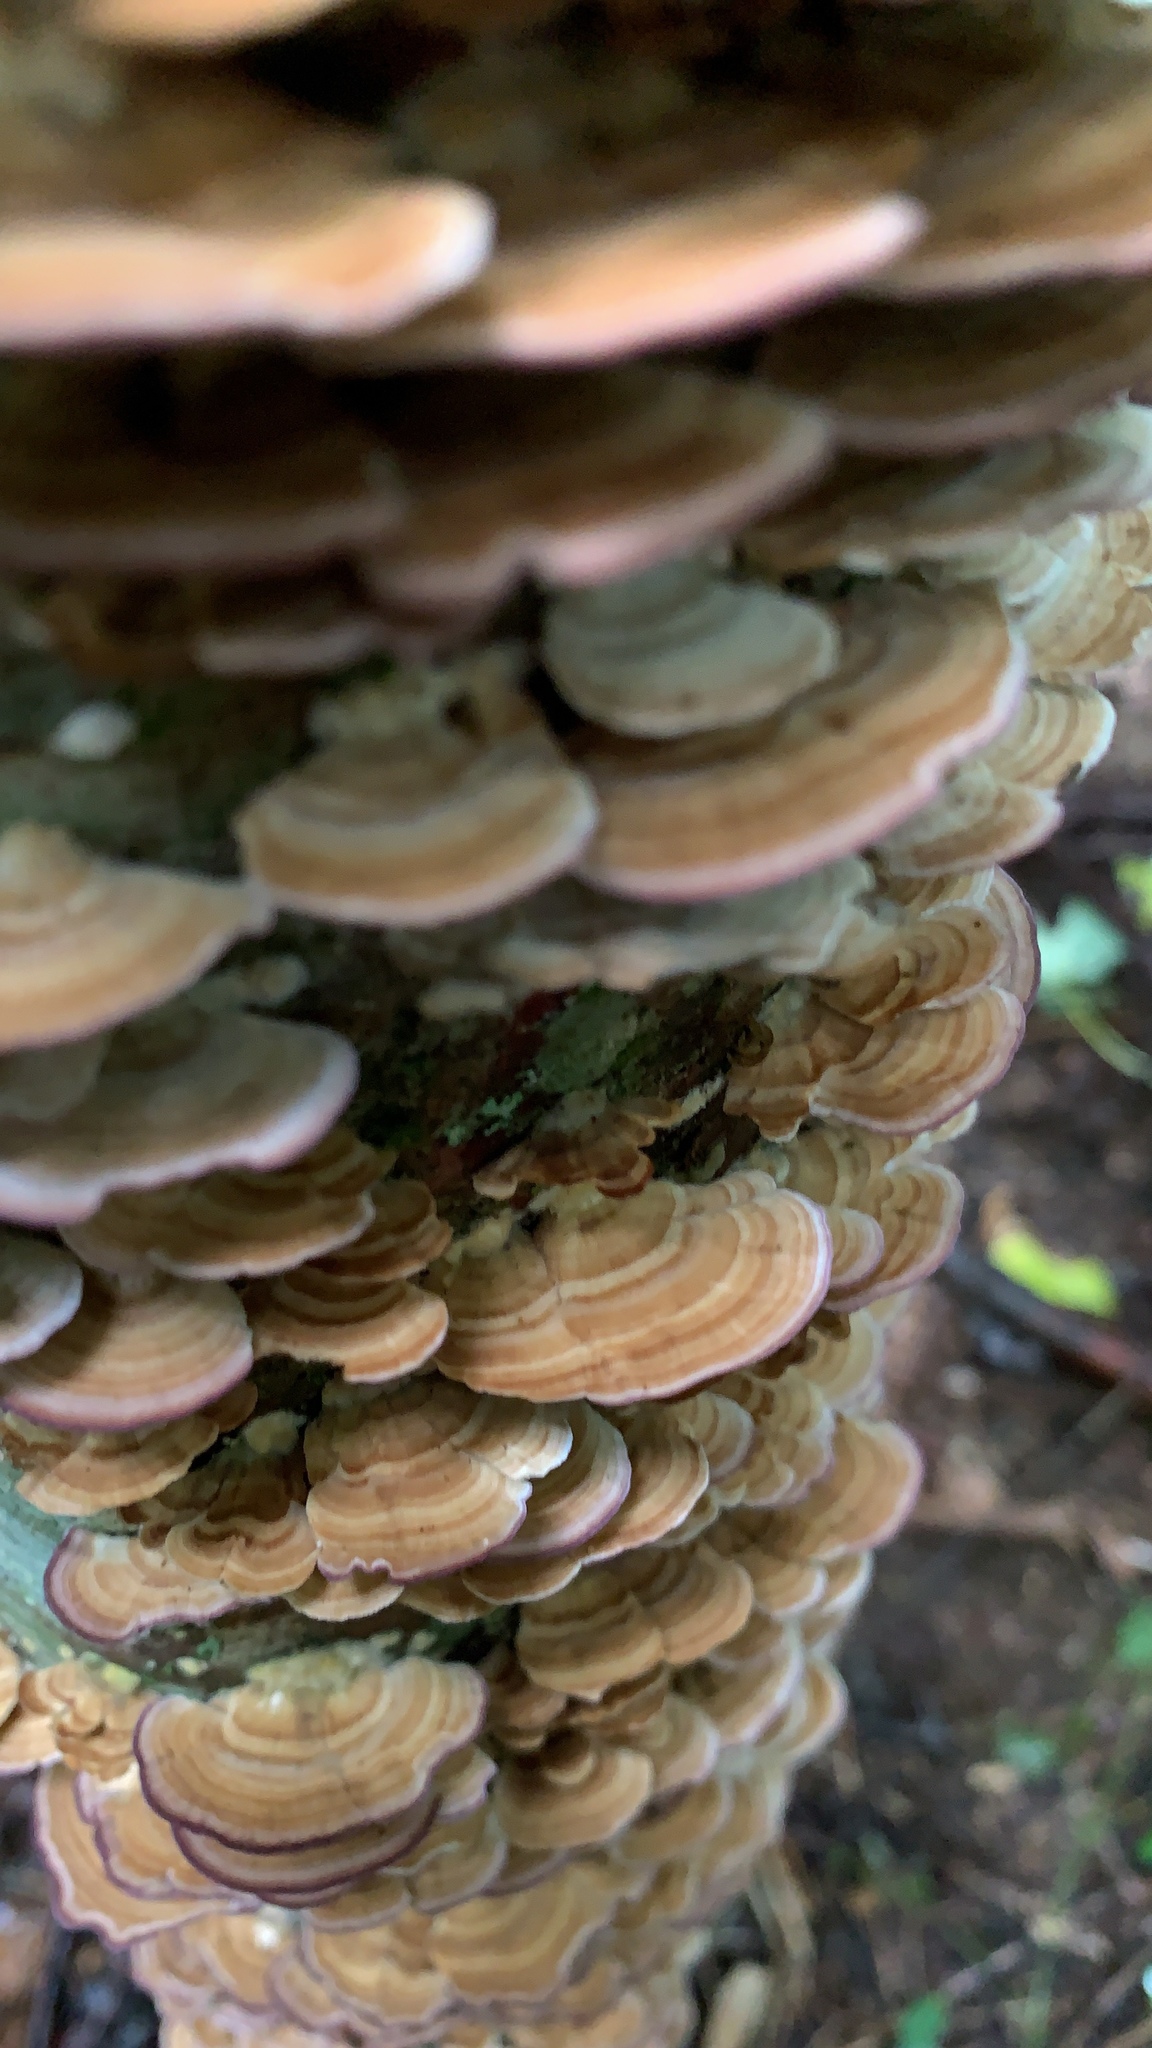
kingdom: Fungi
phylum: Basidiomycota
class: Agaricomycetes
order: Hymenochaetales
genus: Trichaptum
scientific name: Trichaptum biforme
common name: Violet-toothed polypore
